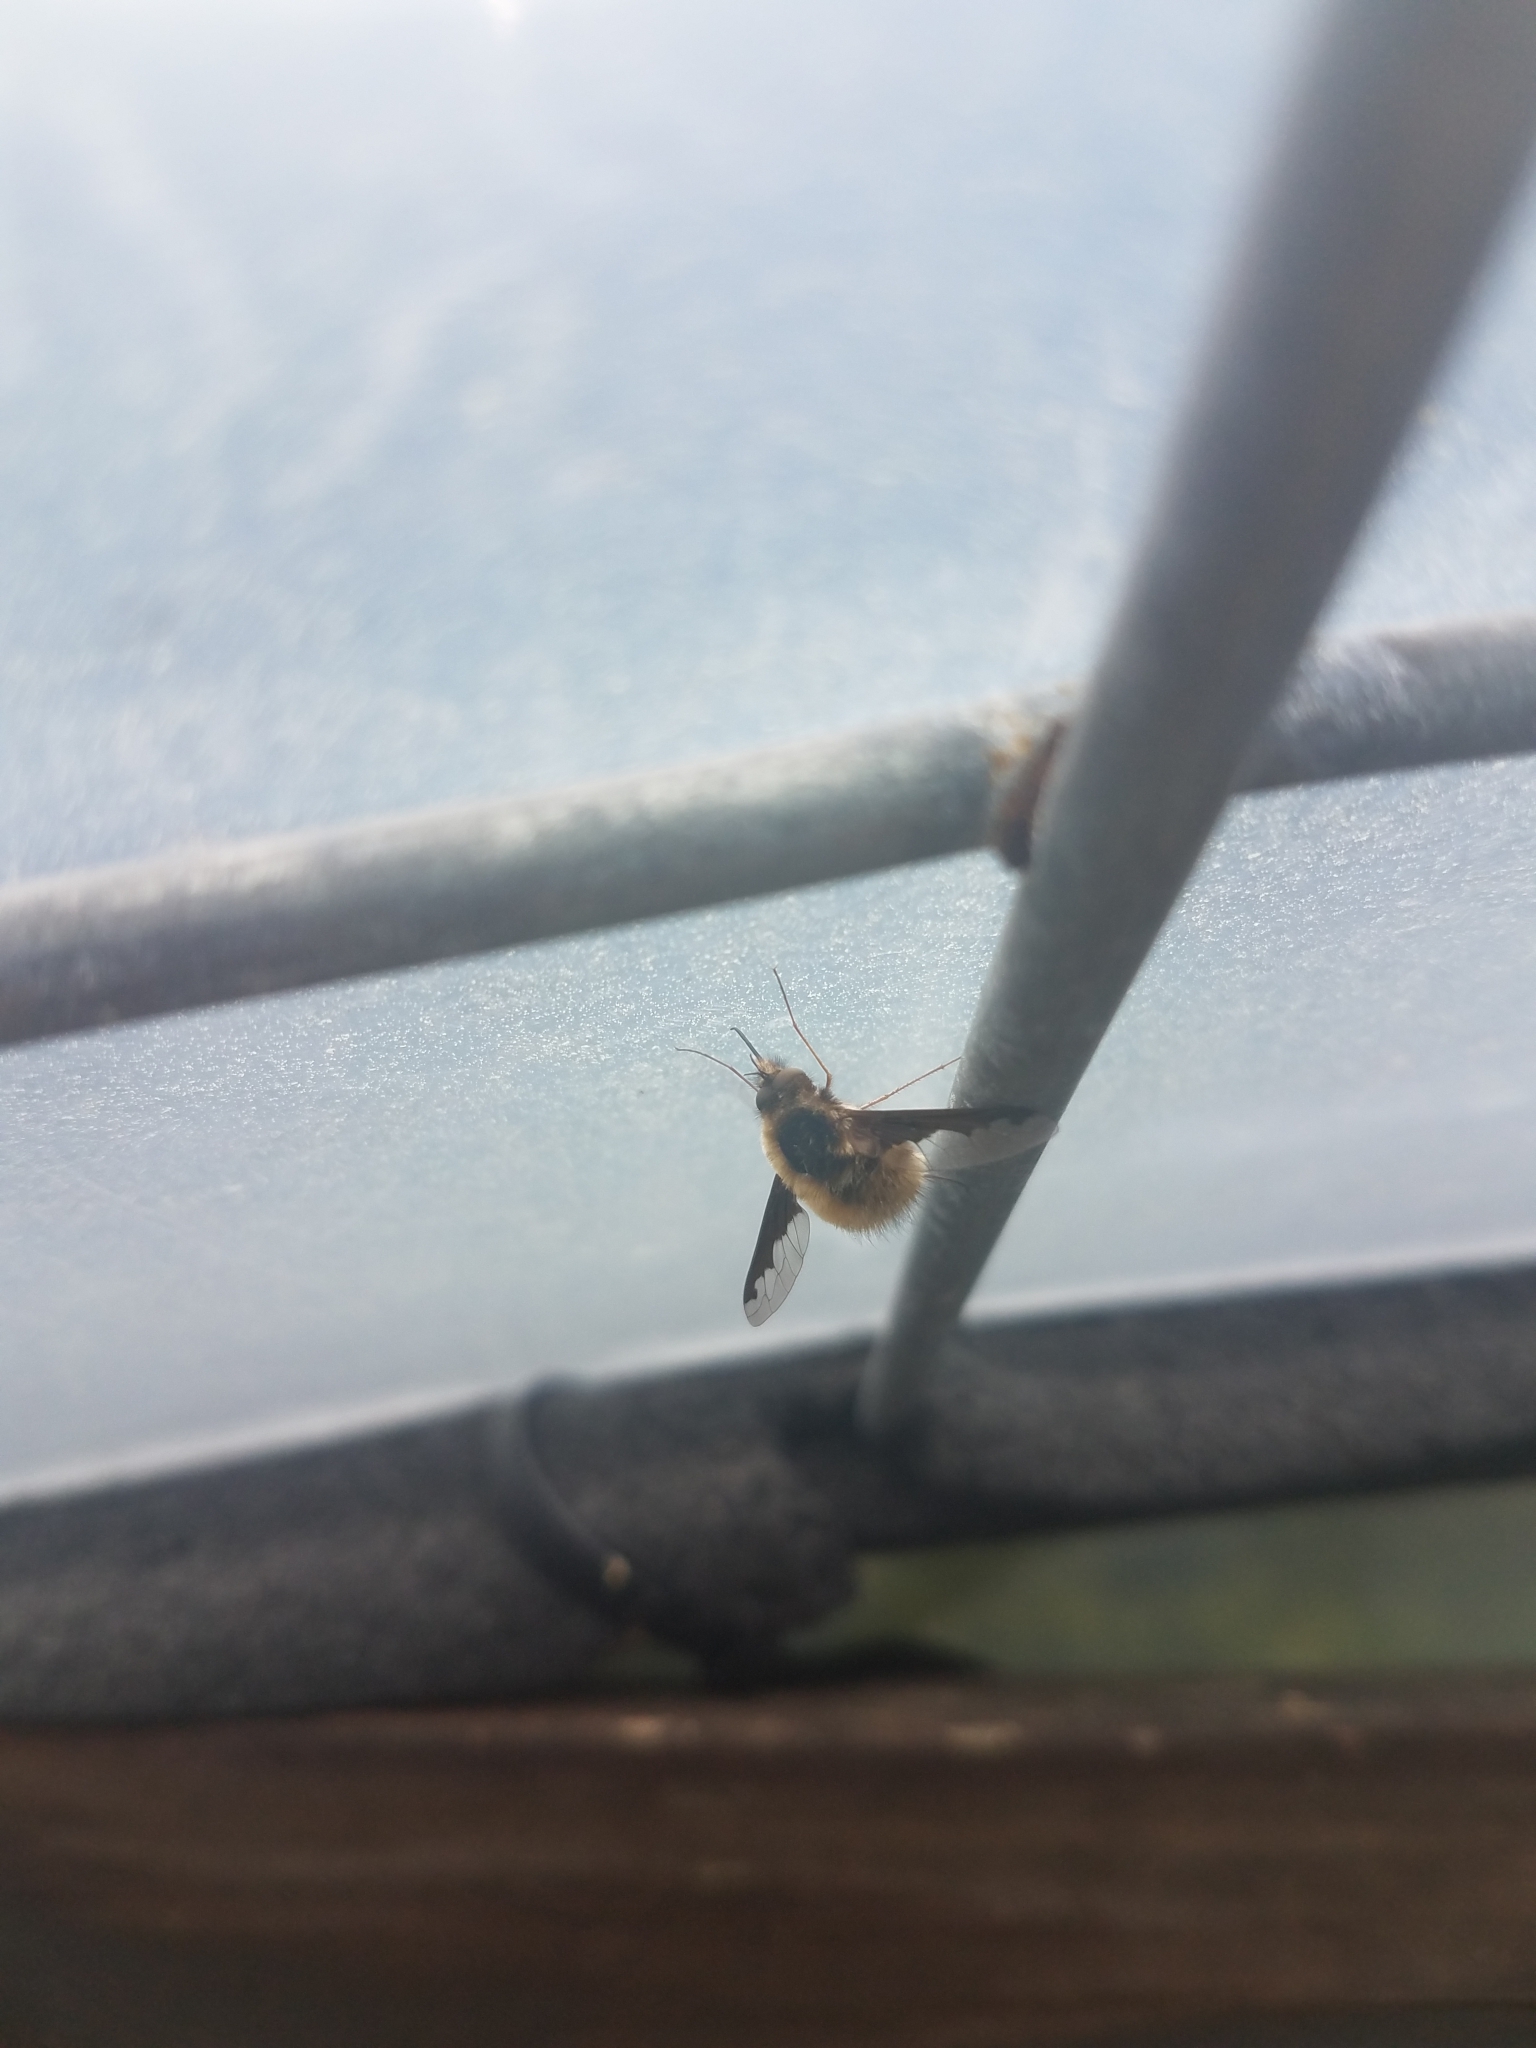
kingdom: Animalia
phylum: Arthropoda
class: Insecta
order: Diptera
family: Bombyliidae
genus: Bombylius
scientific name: Bombylius major
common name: Bee fly
